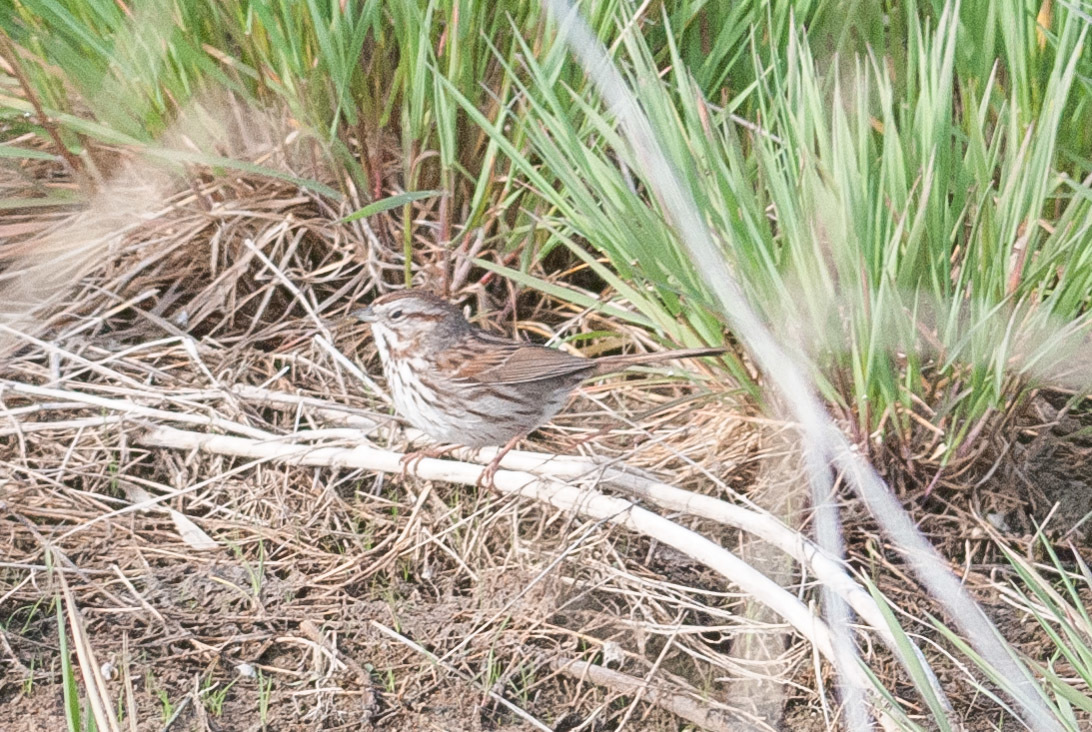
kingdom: Animalia
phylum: Chordata
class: Aves
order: Passeriformes
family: Passerellidae
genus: Melospiza
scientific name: Melospiza melodia
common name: Song sparrow
